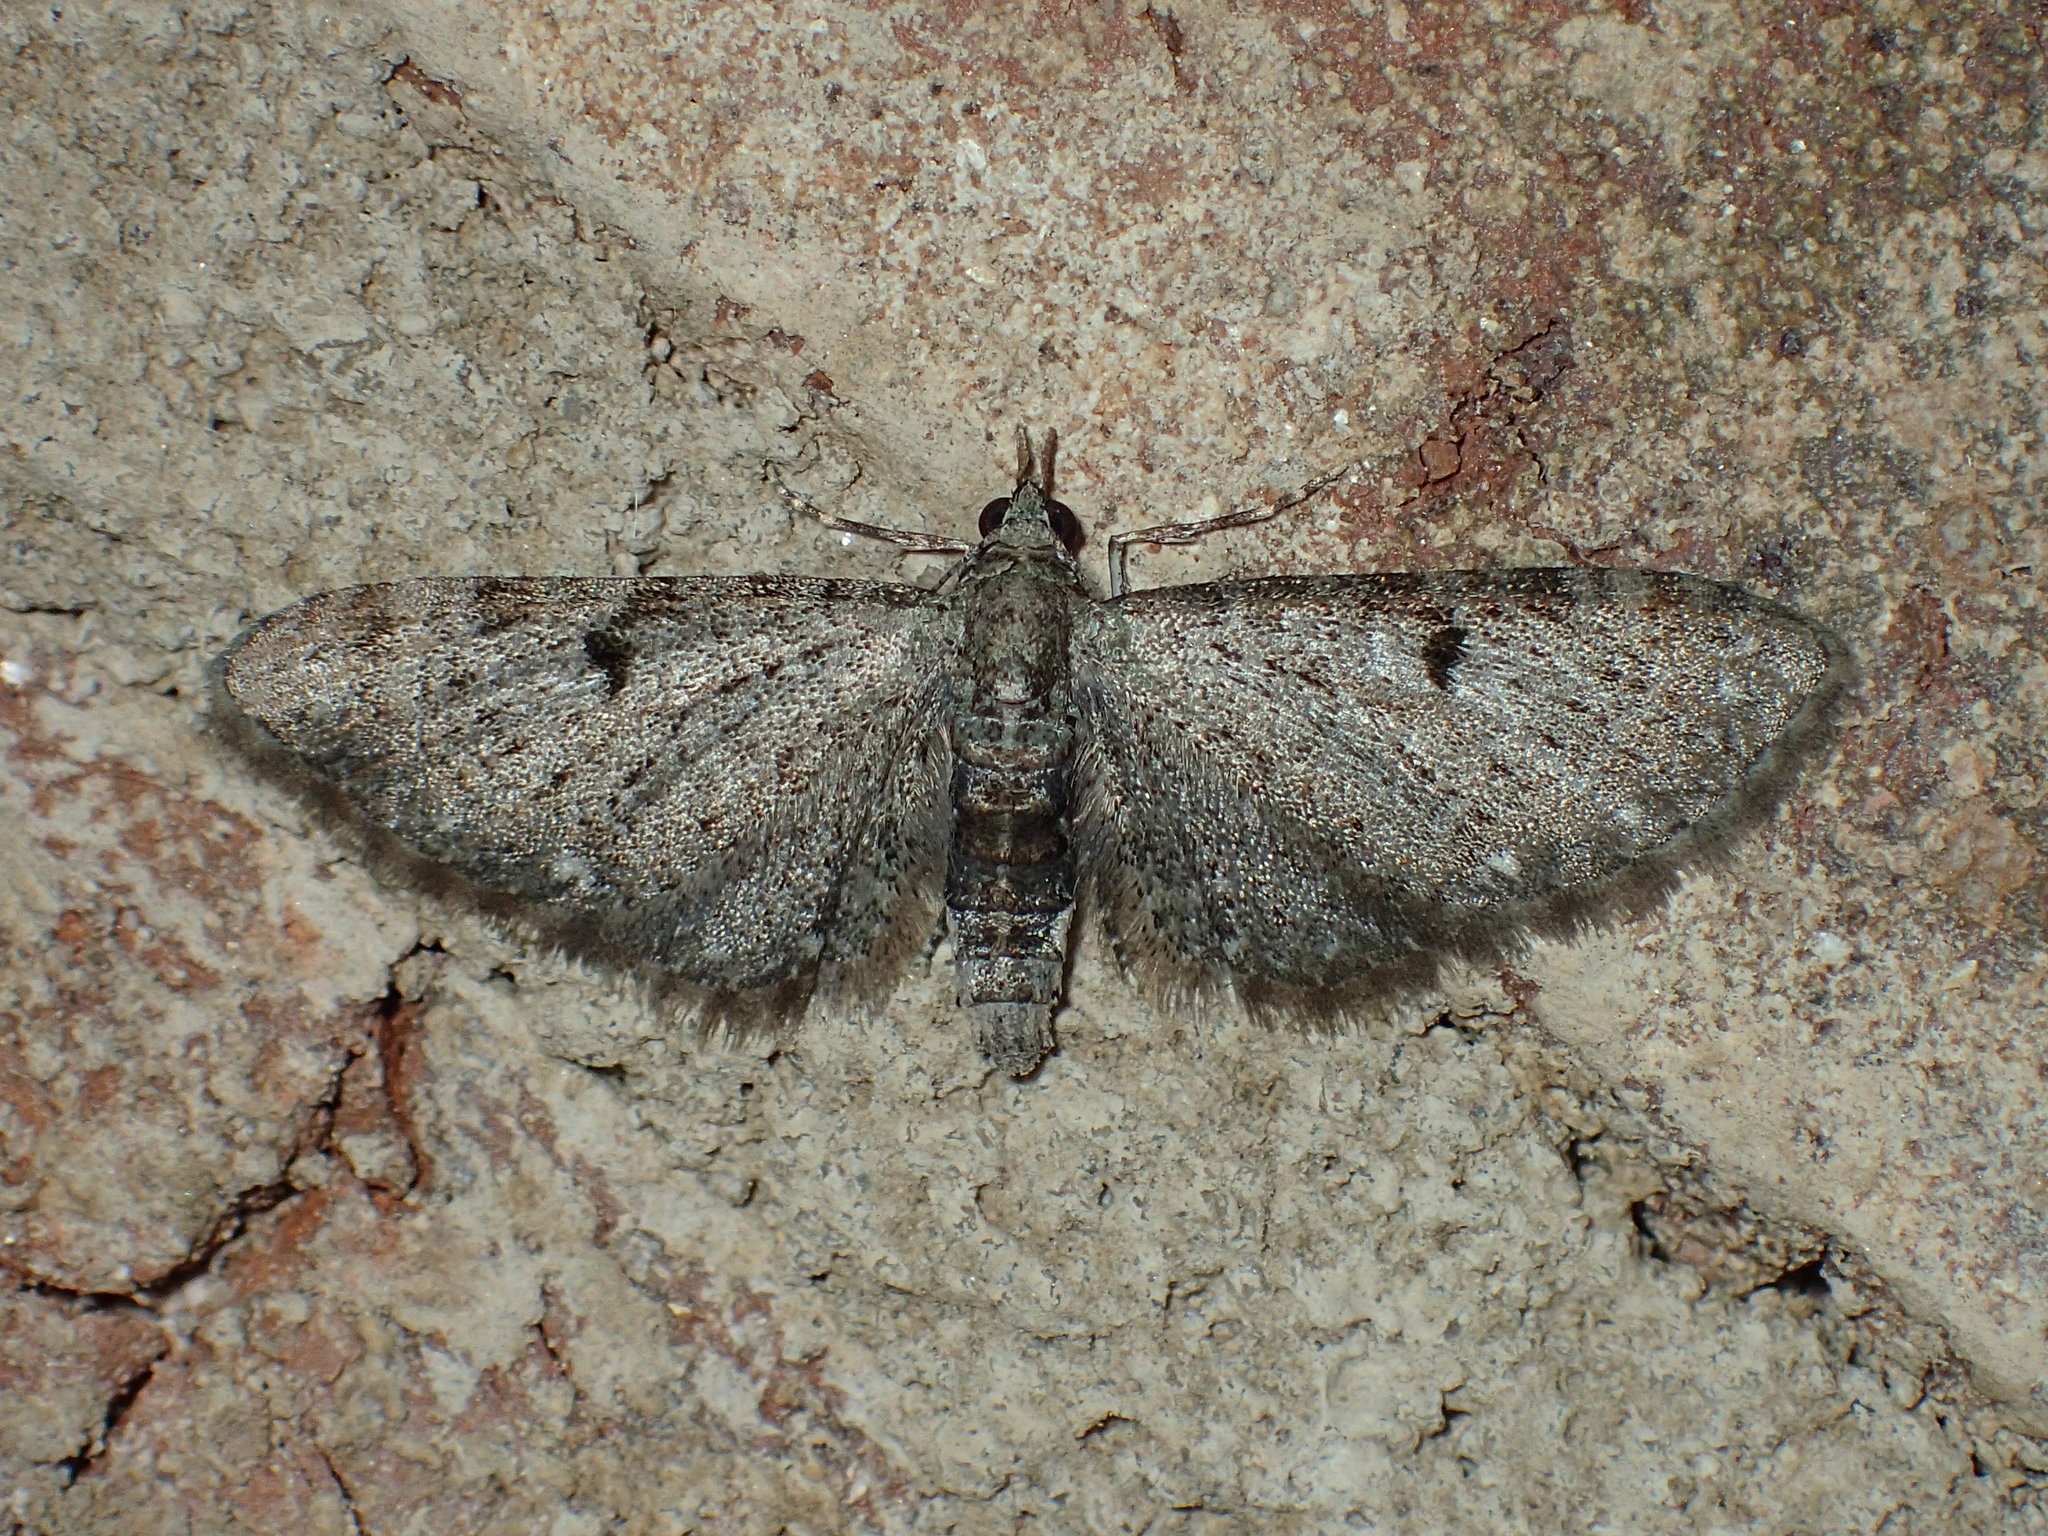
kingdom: Animalia
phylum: Arthropoda
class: Insecta
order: Lepidoptera
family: Geometridae
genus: Eupithecia
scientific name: Eupithecia miserulata
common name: Common eupithecia
